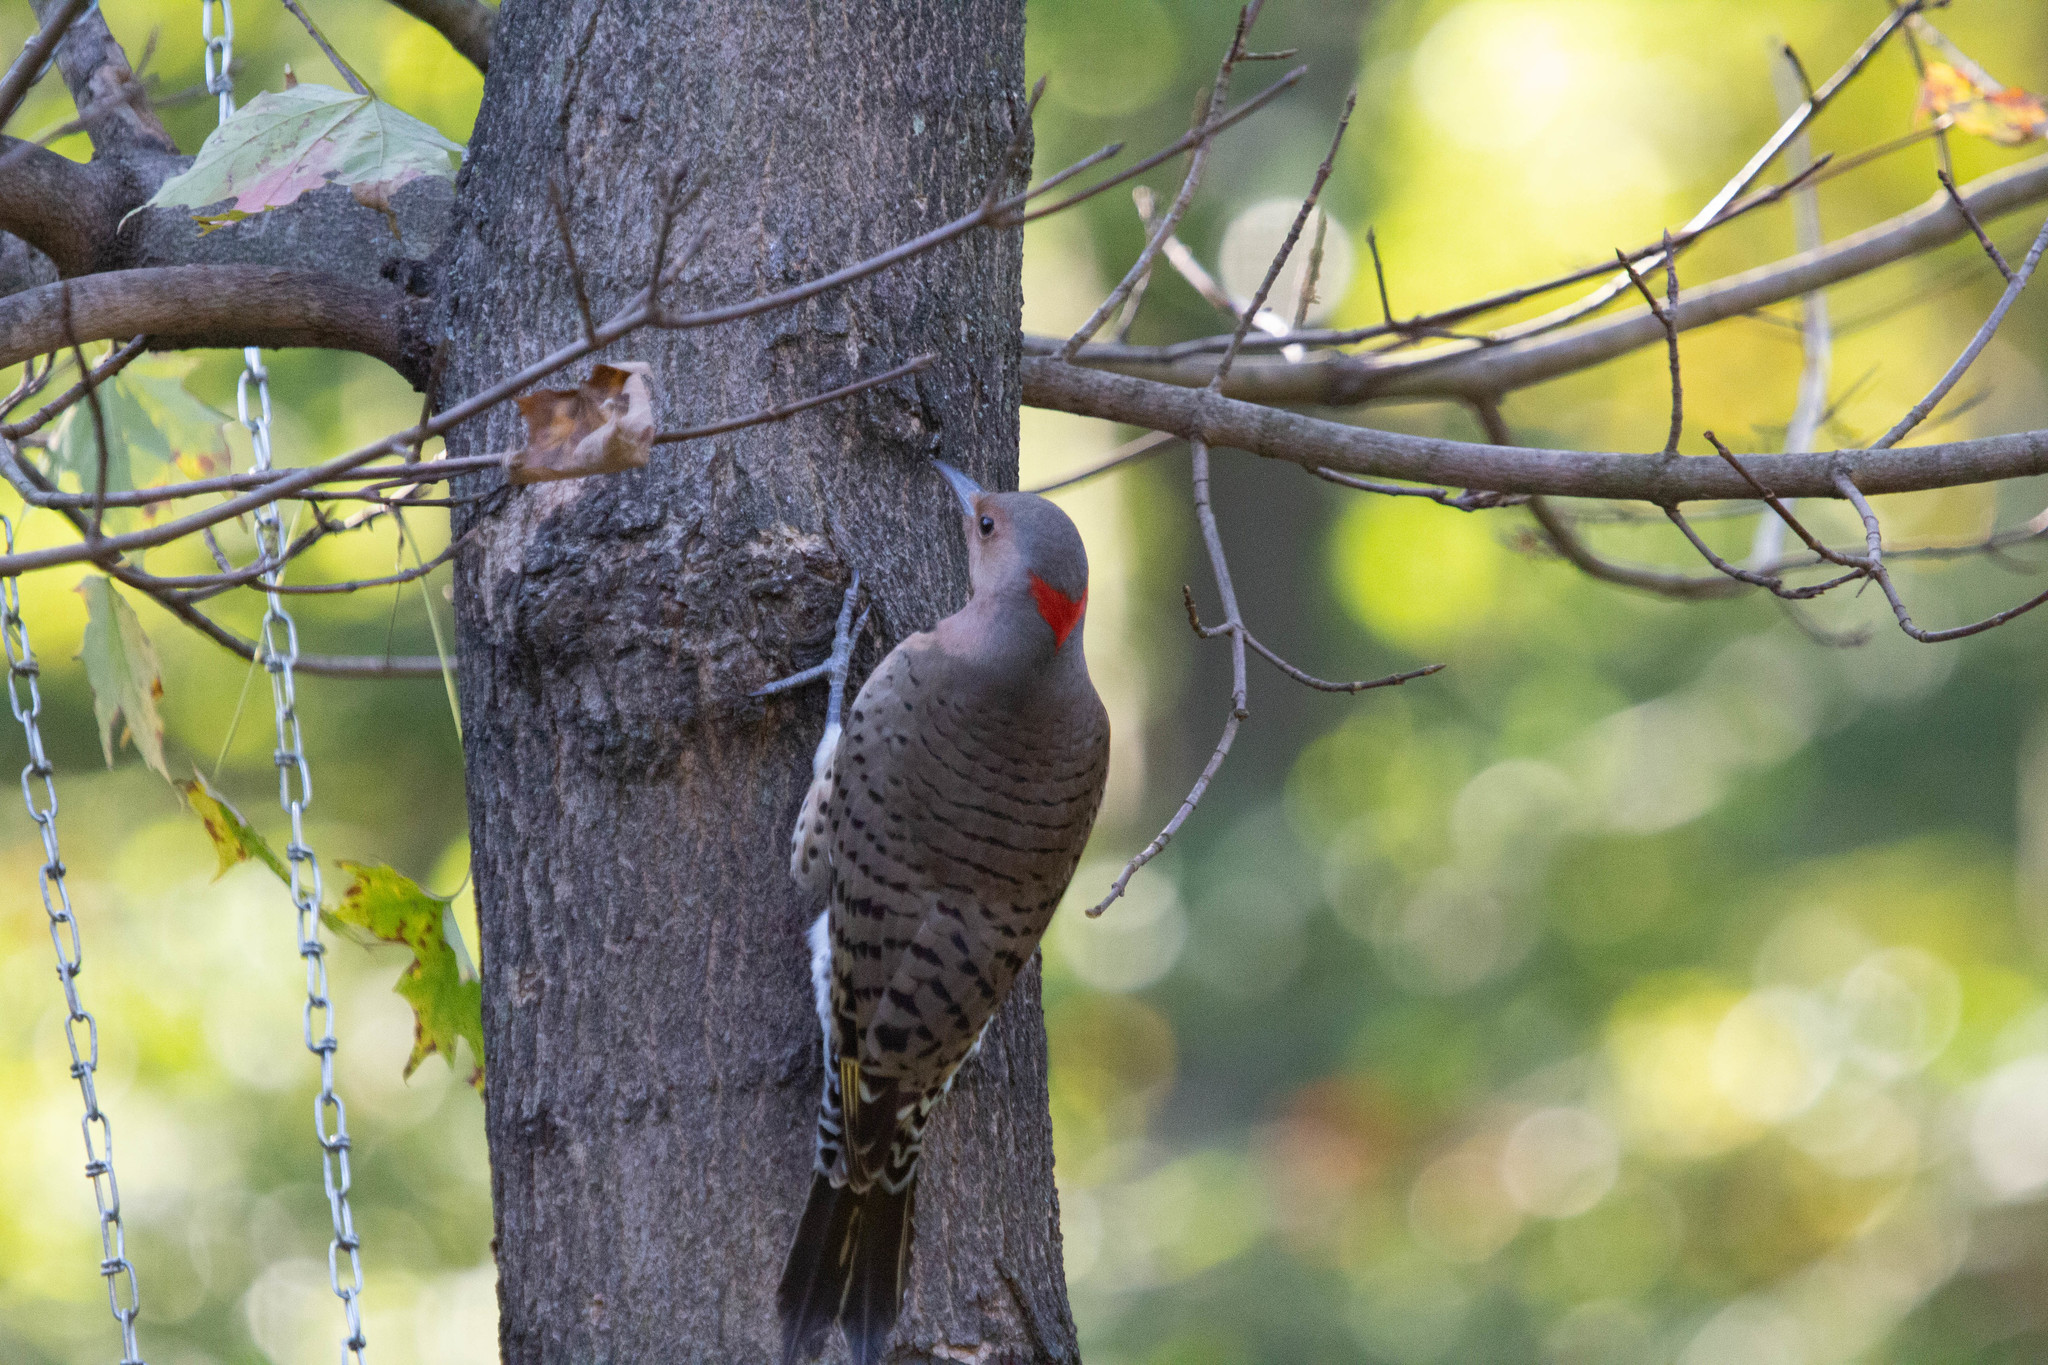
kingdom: Animalia
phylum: Chordata
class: Aves
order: Piciformes
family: Picidae
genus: Colaptes
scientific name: Colaptes auratus
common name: Northern flicker
